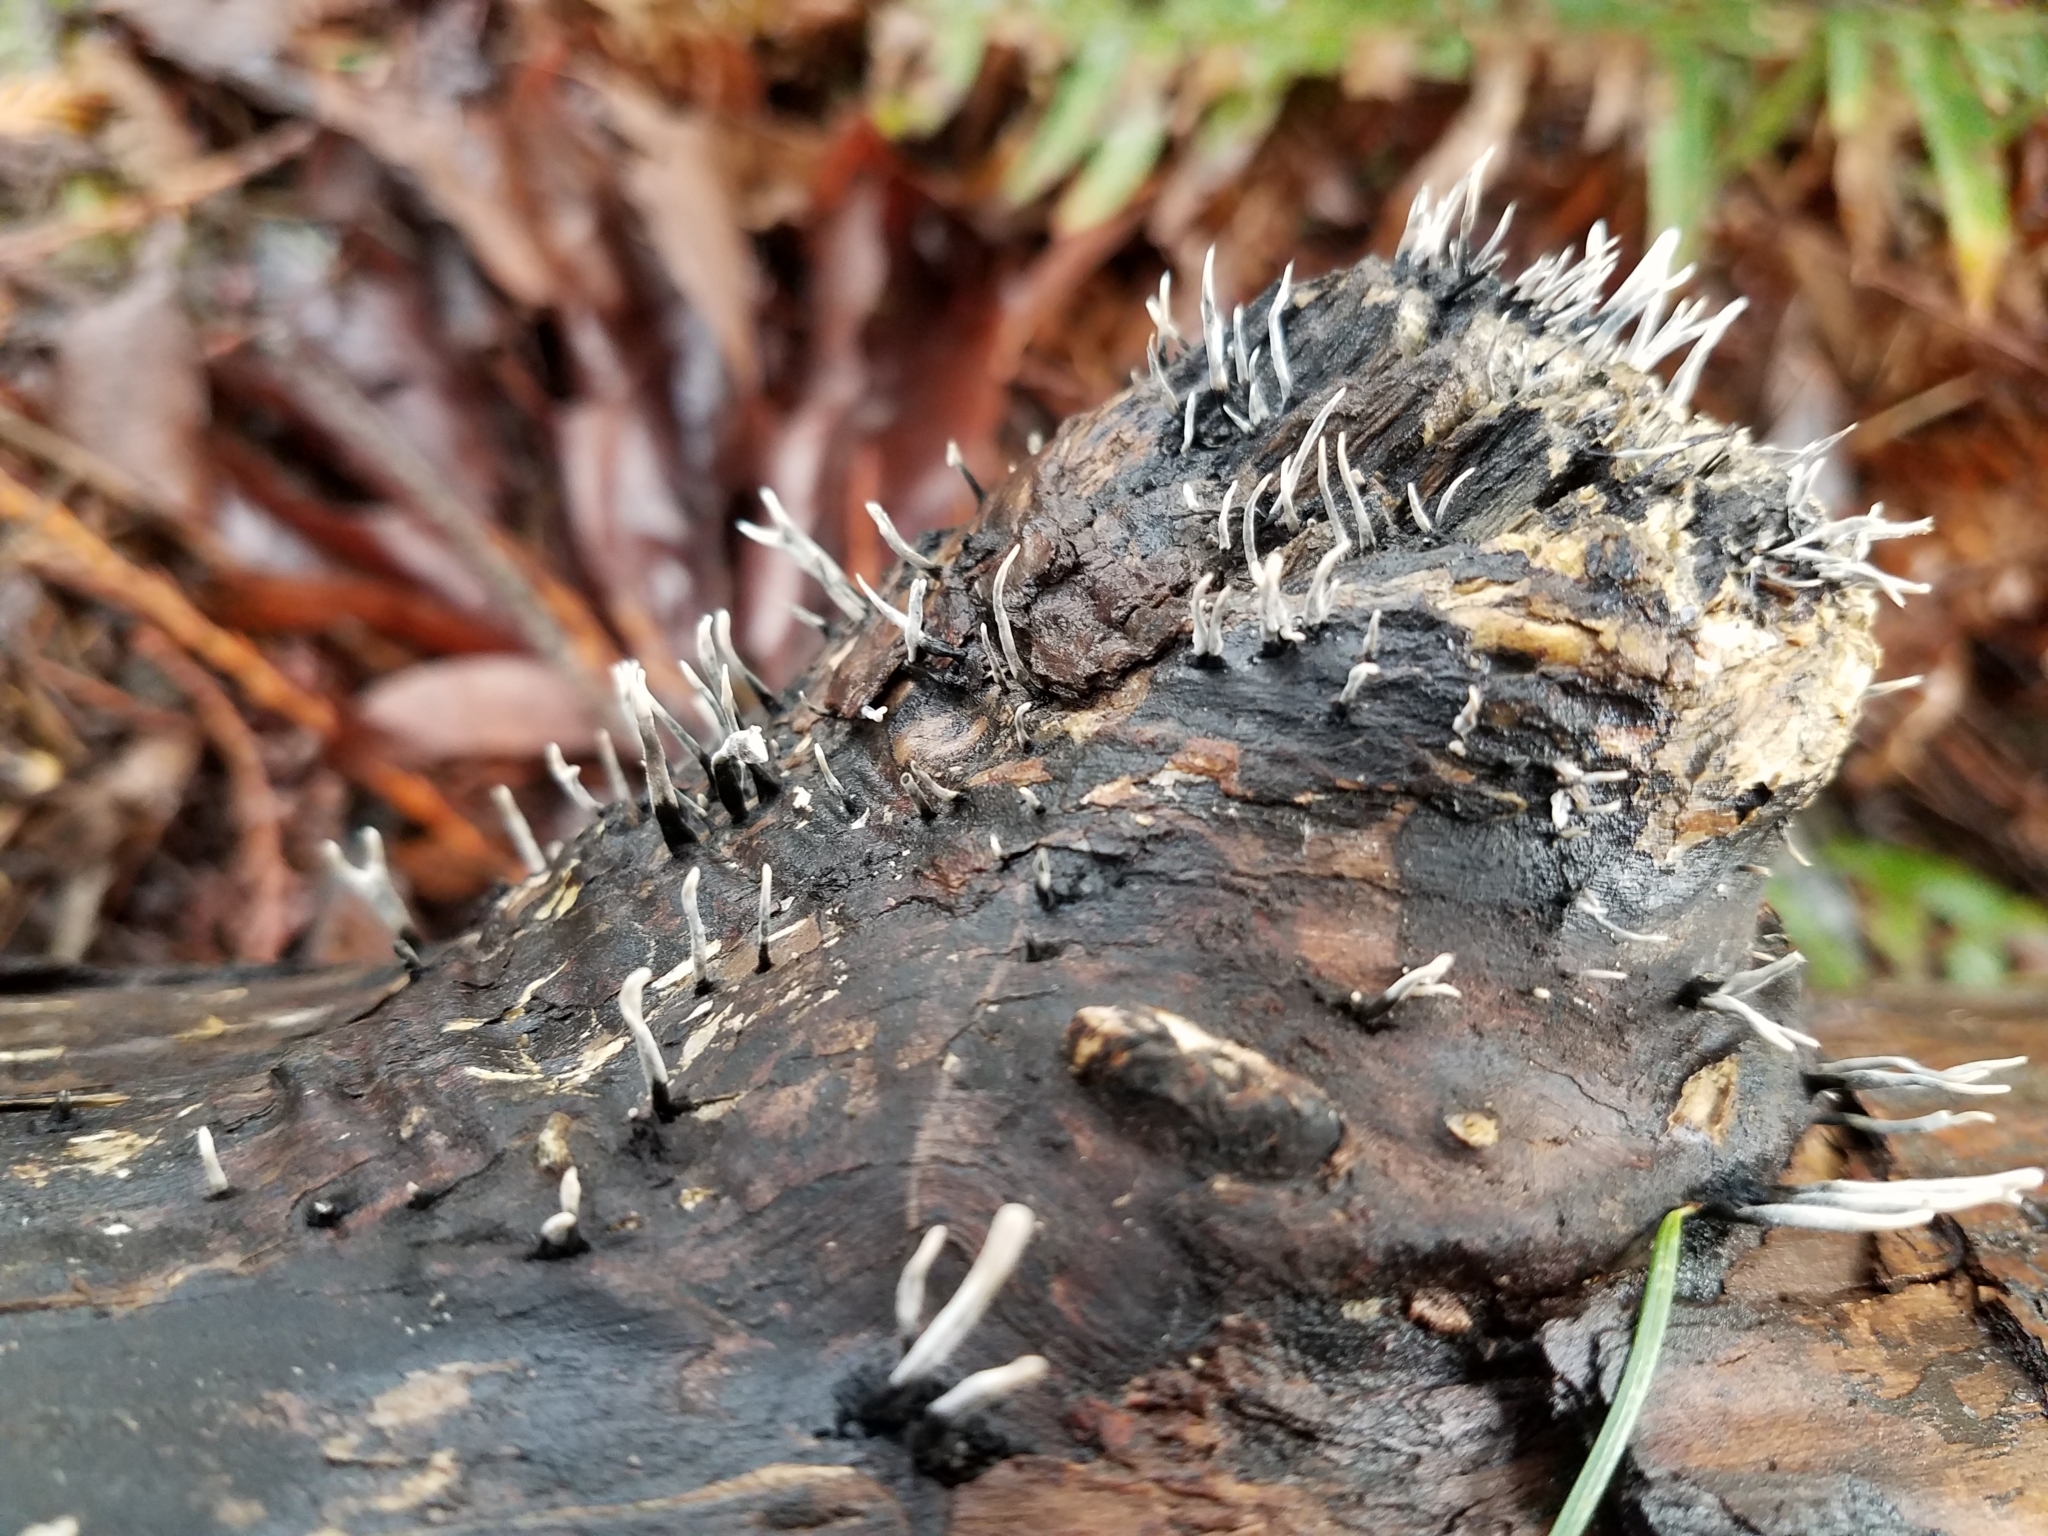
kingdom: Fungi
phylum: Ascomycota
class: Sordariomycetes
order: Xylariales
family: Xylariaceae
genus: Xylaria
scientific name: Xylaria hypoxylon
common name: Candle-snuff fungus
